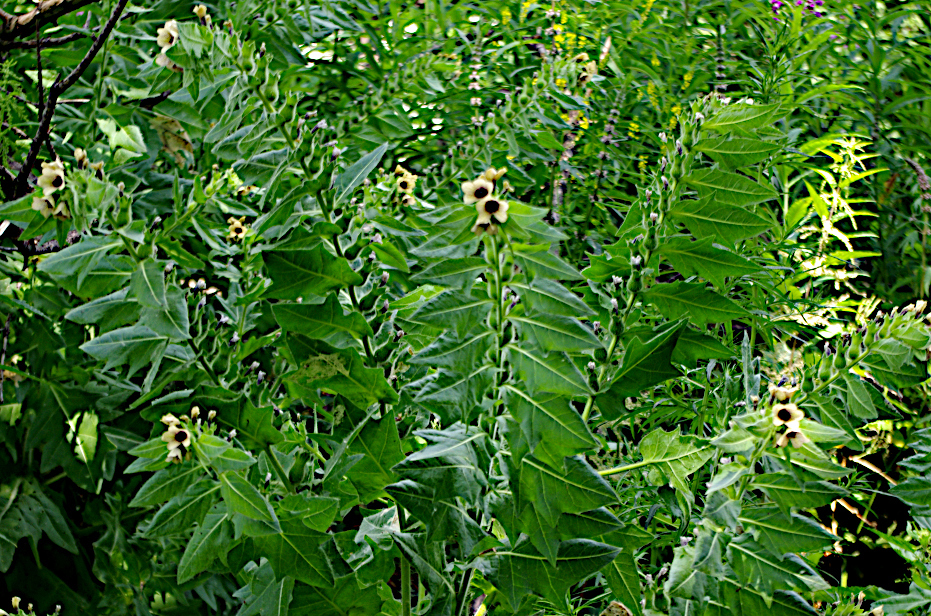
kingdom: Plantae
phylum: Tracheophyta
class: Magnoliopsida
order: Solanales
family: Solanaceae
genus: Hyoscyamus
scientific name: Hyoscyamus niger
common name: Henbane
